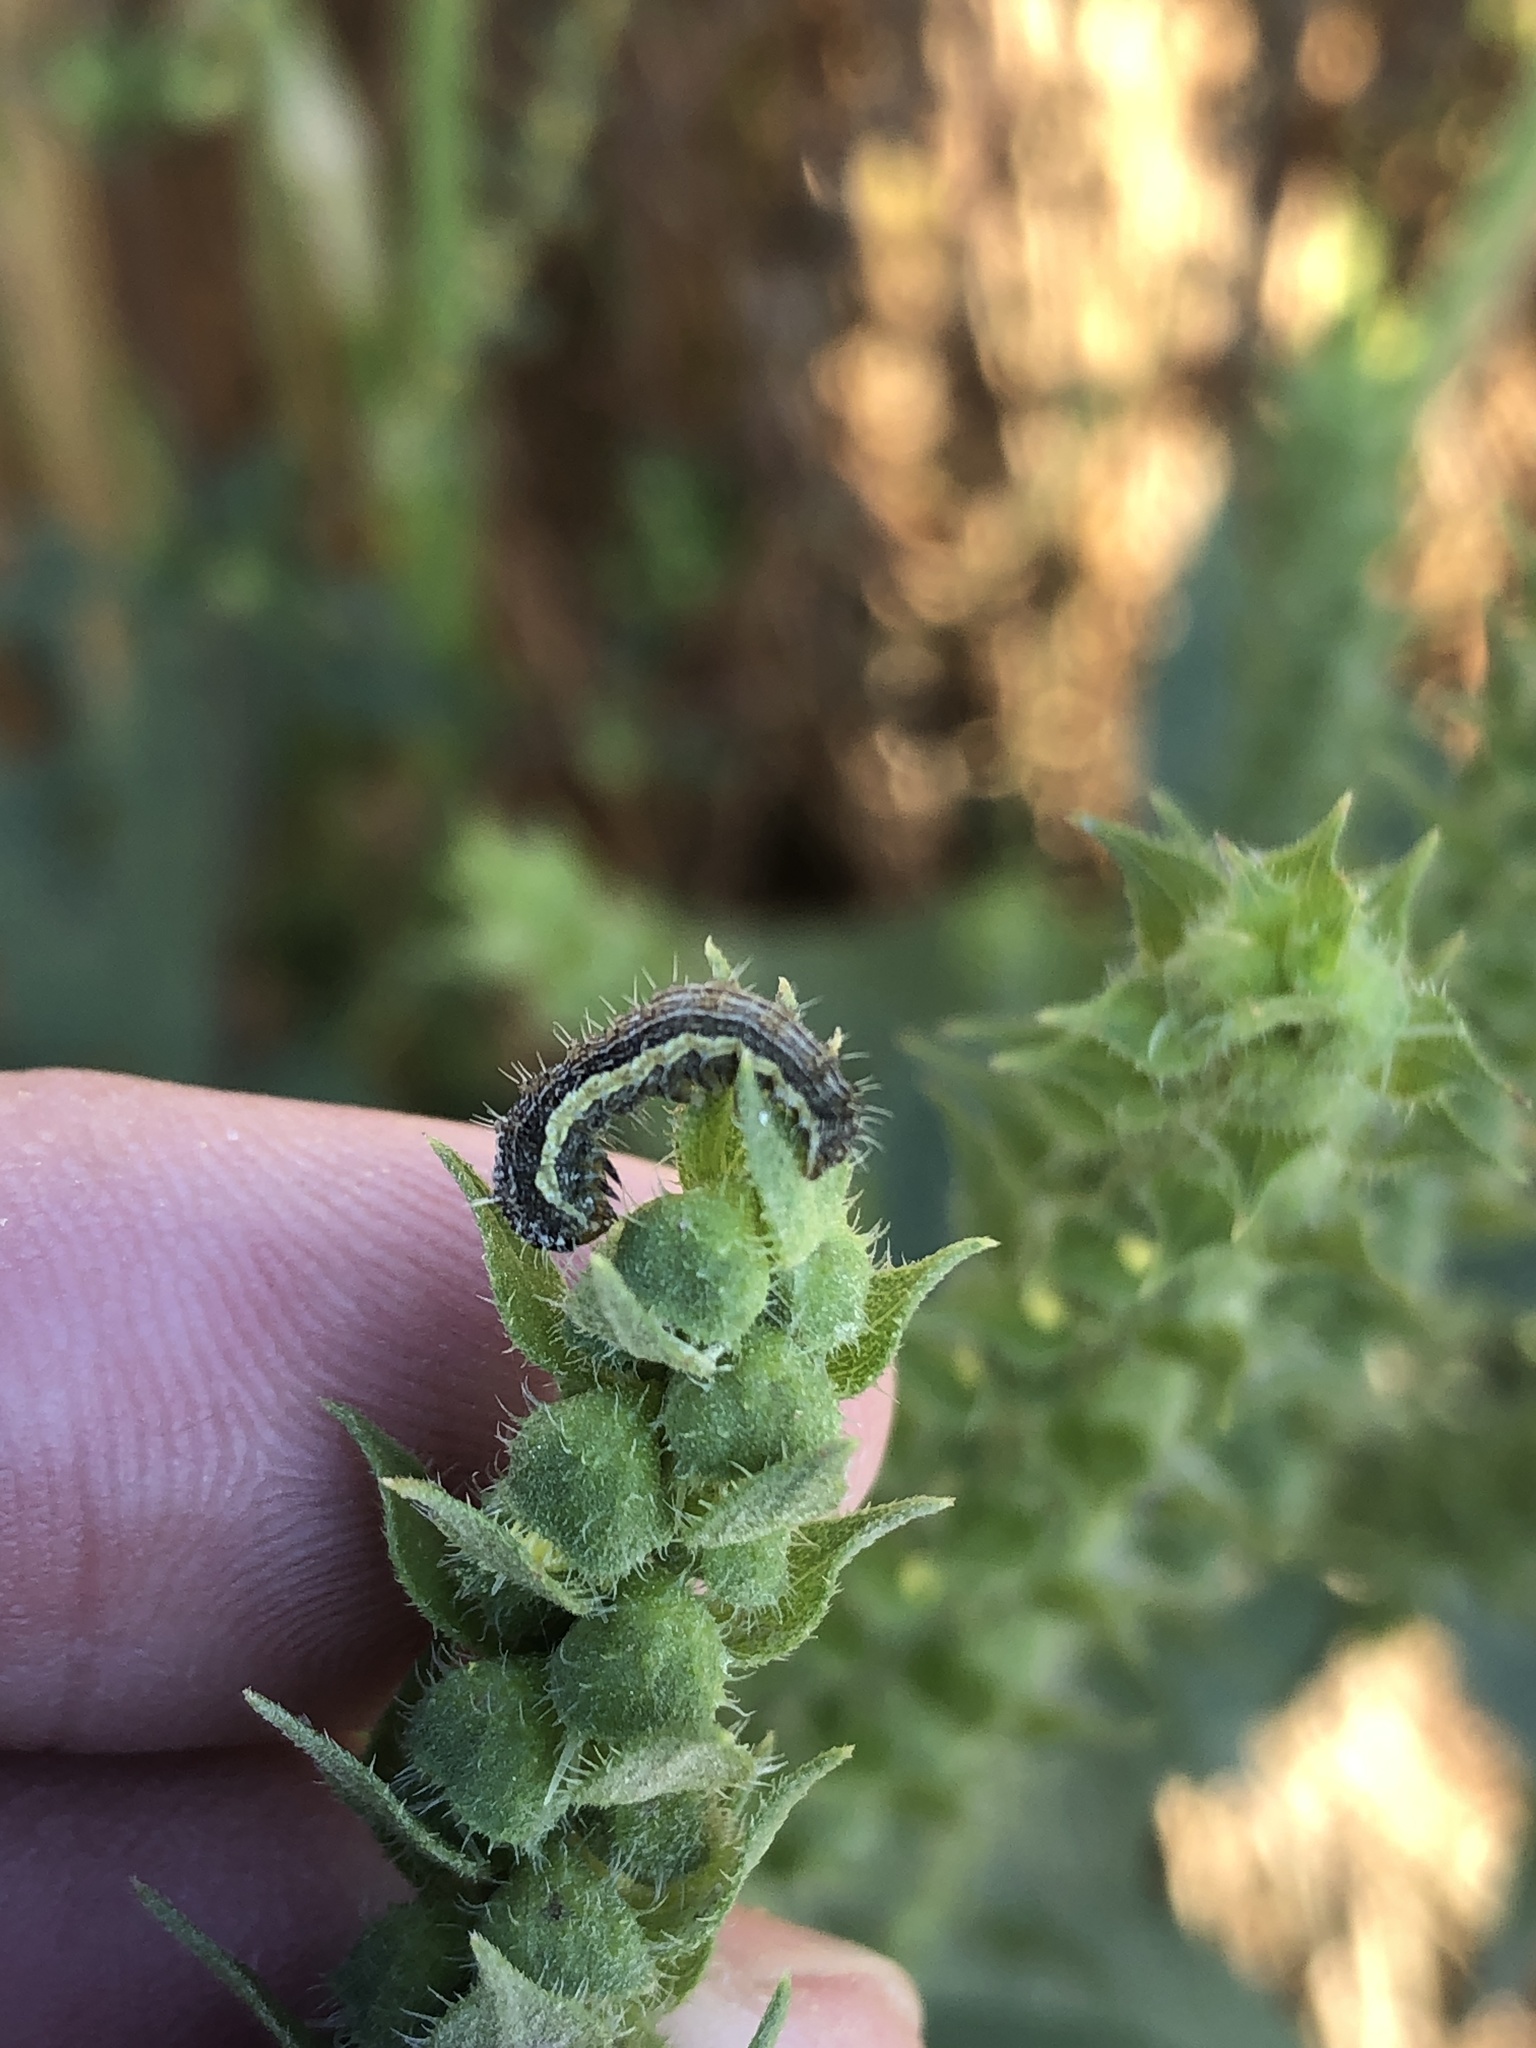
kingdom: Animalia
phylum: Arthropoda
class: Insecta
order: Lepidoptera
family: Noctuidae
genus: Schinia
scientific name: Schinia gracilenta
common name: Slender flower moth
